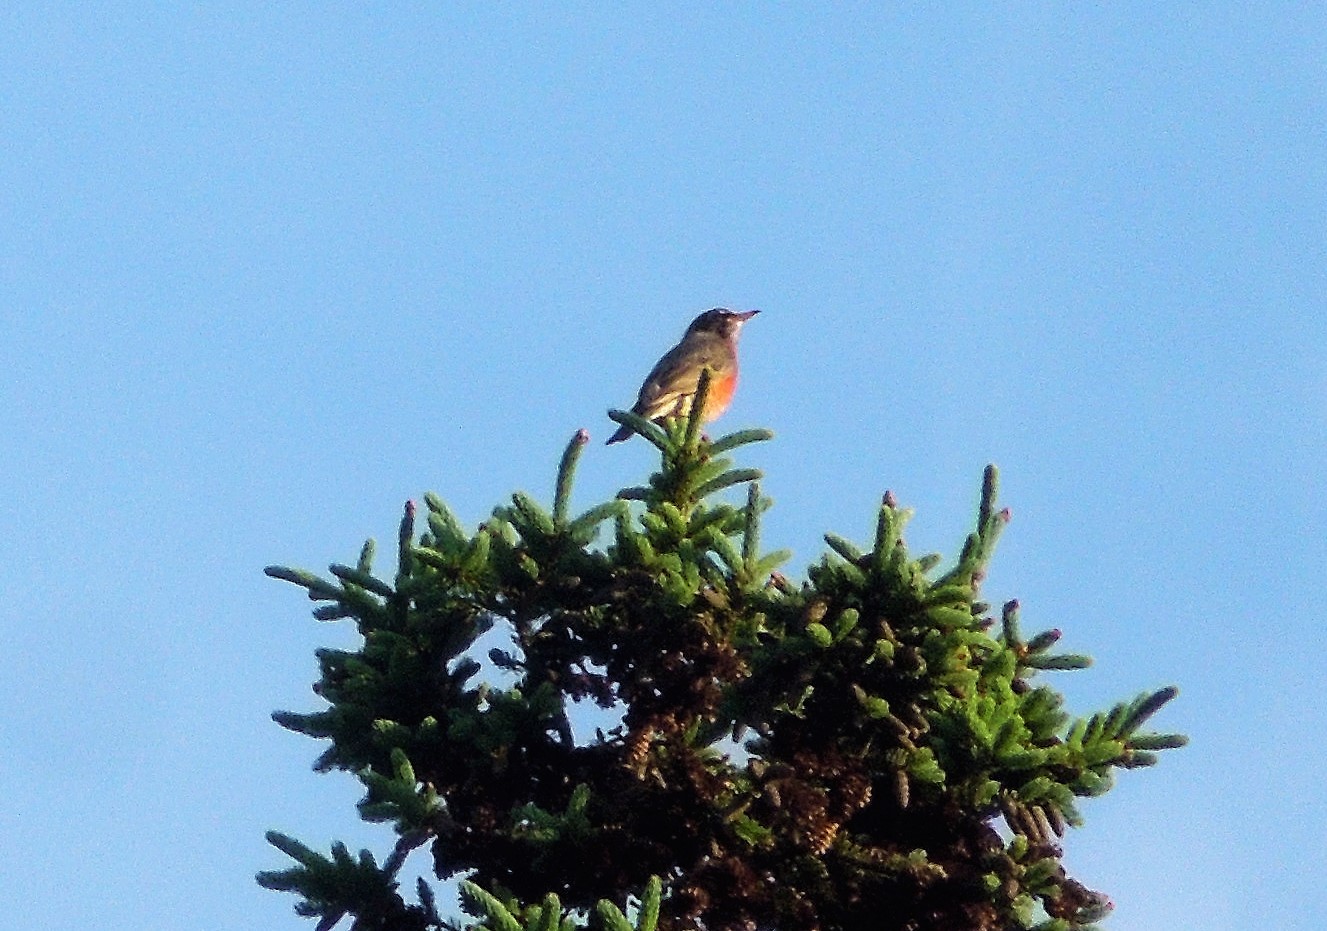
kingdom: Animalia
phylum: Chordata
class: Aves
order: Passeriformes
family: Turdidae
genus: Turdus
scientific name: Turdus migratorius
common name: American robin
